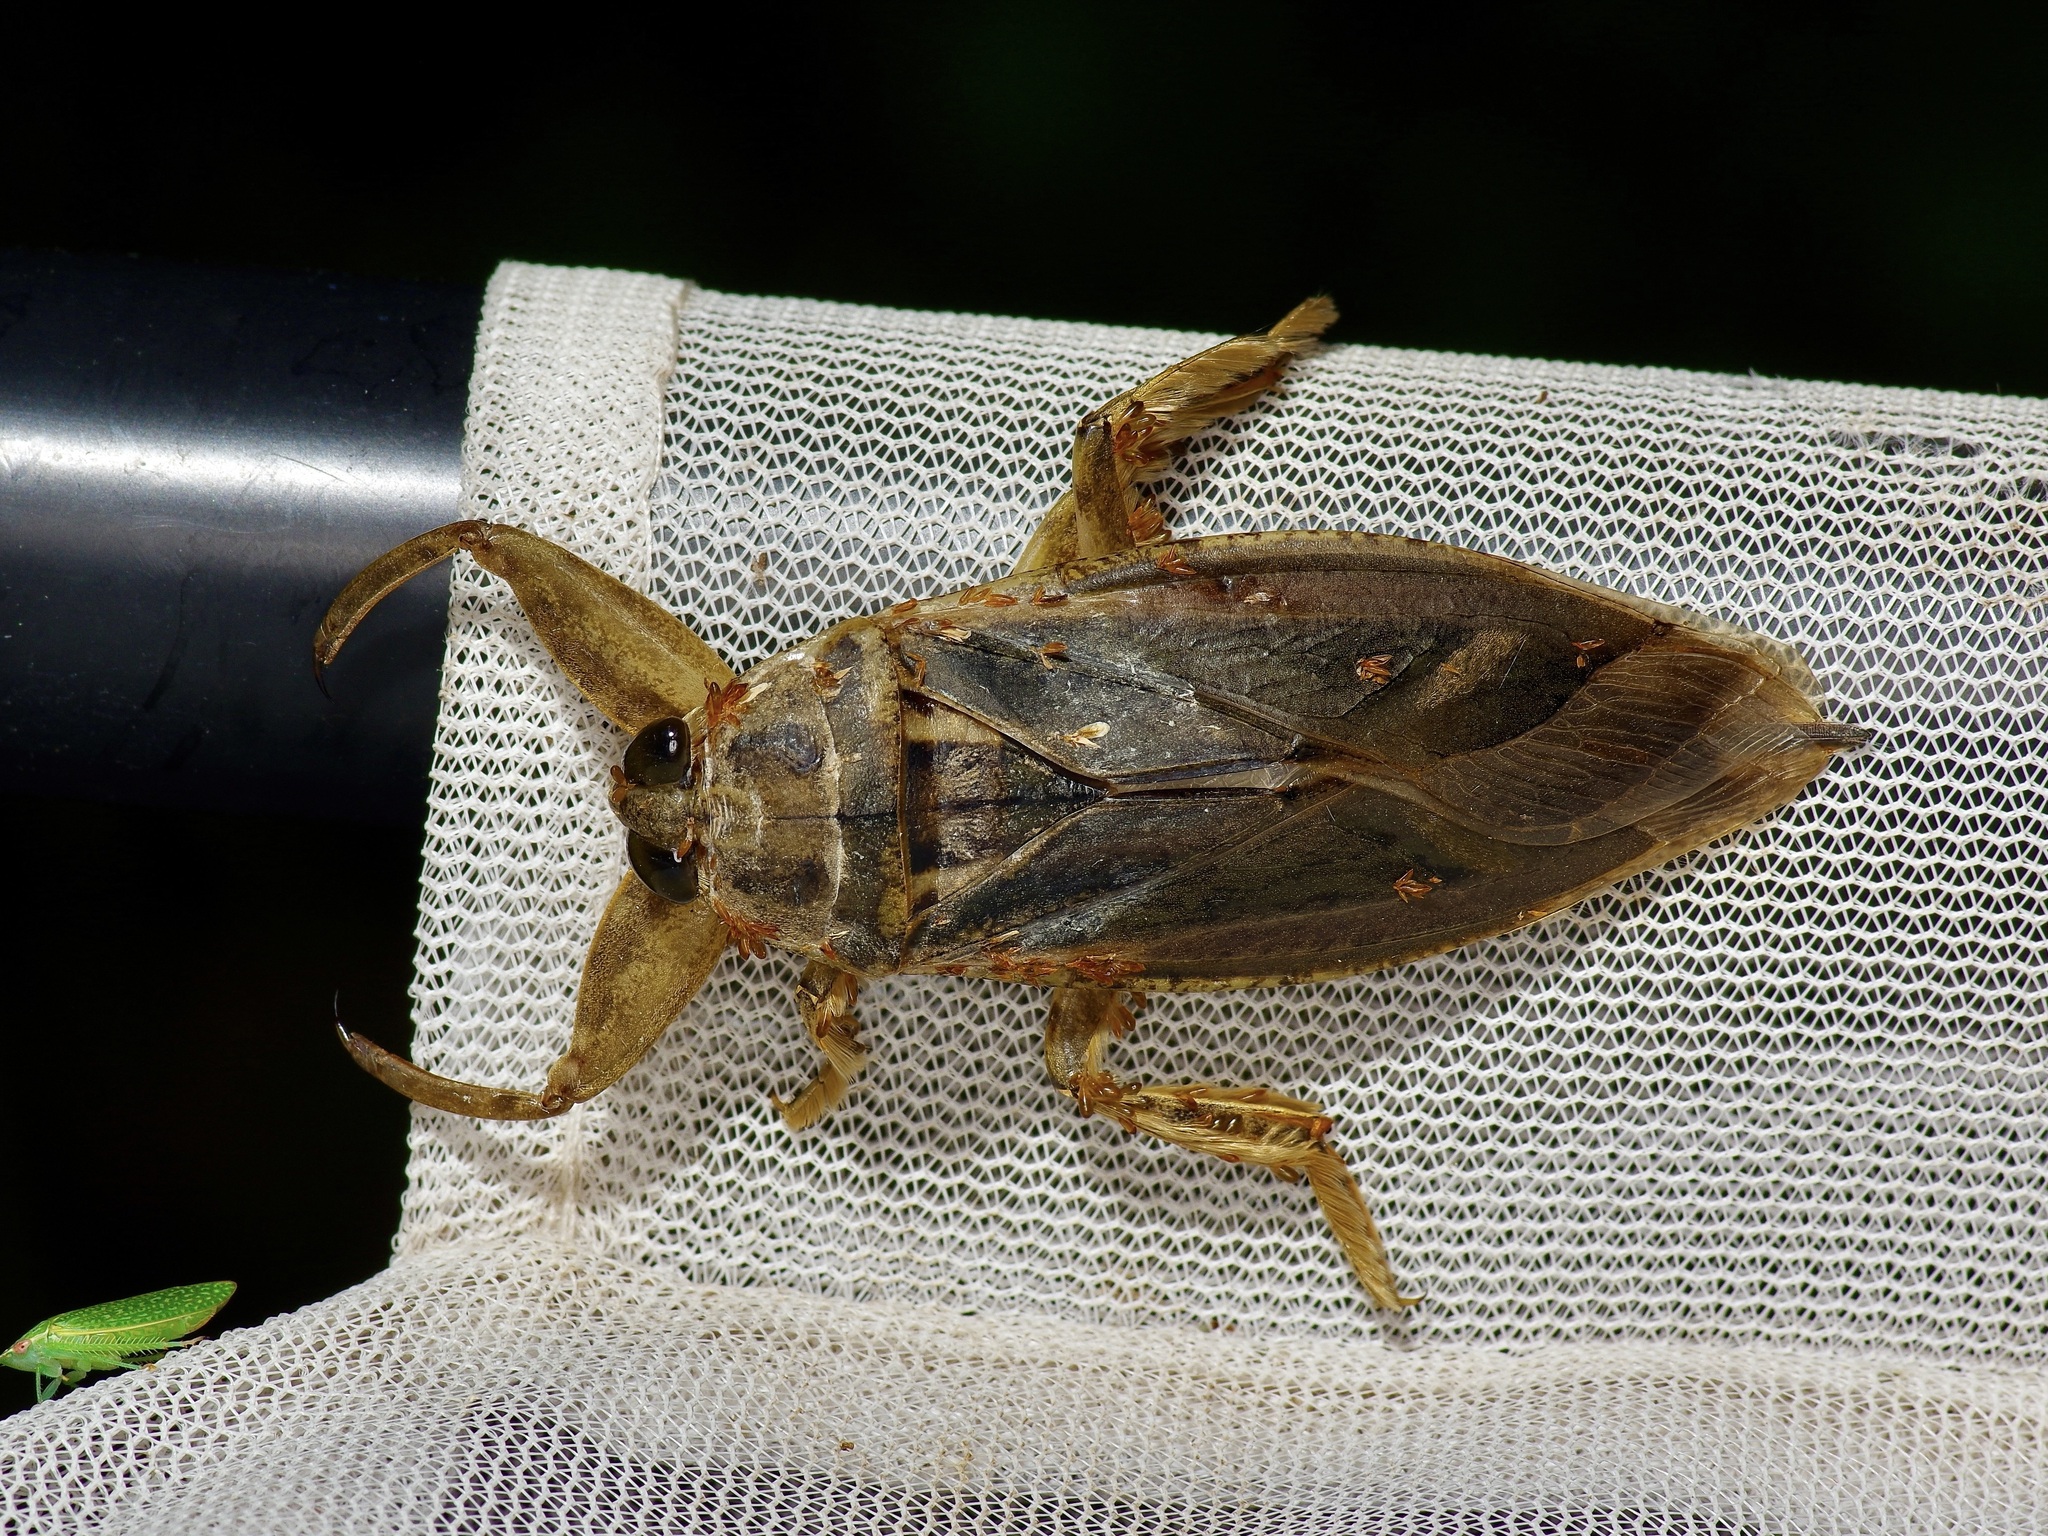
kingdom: Animalia
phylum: Arthropoda
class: Insecta
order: Hemiptera
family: Belostomatidae
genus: Lethocerus
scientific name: Lethocerus
